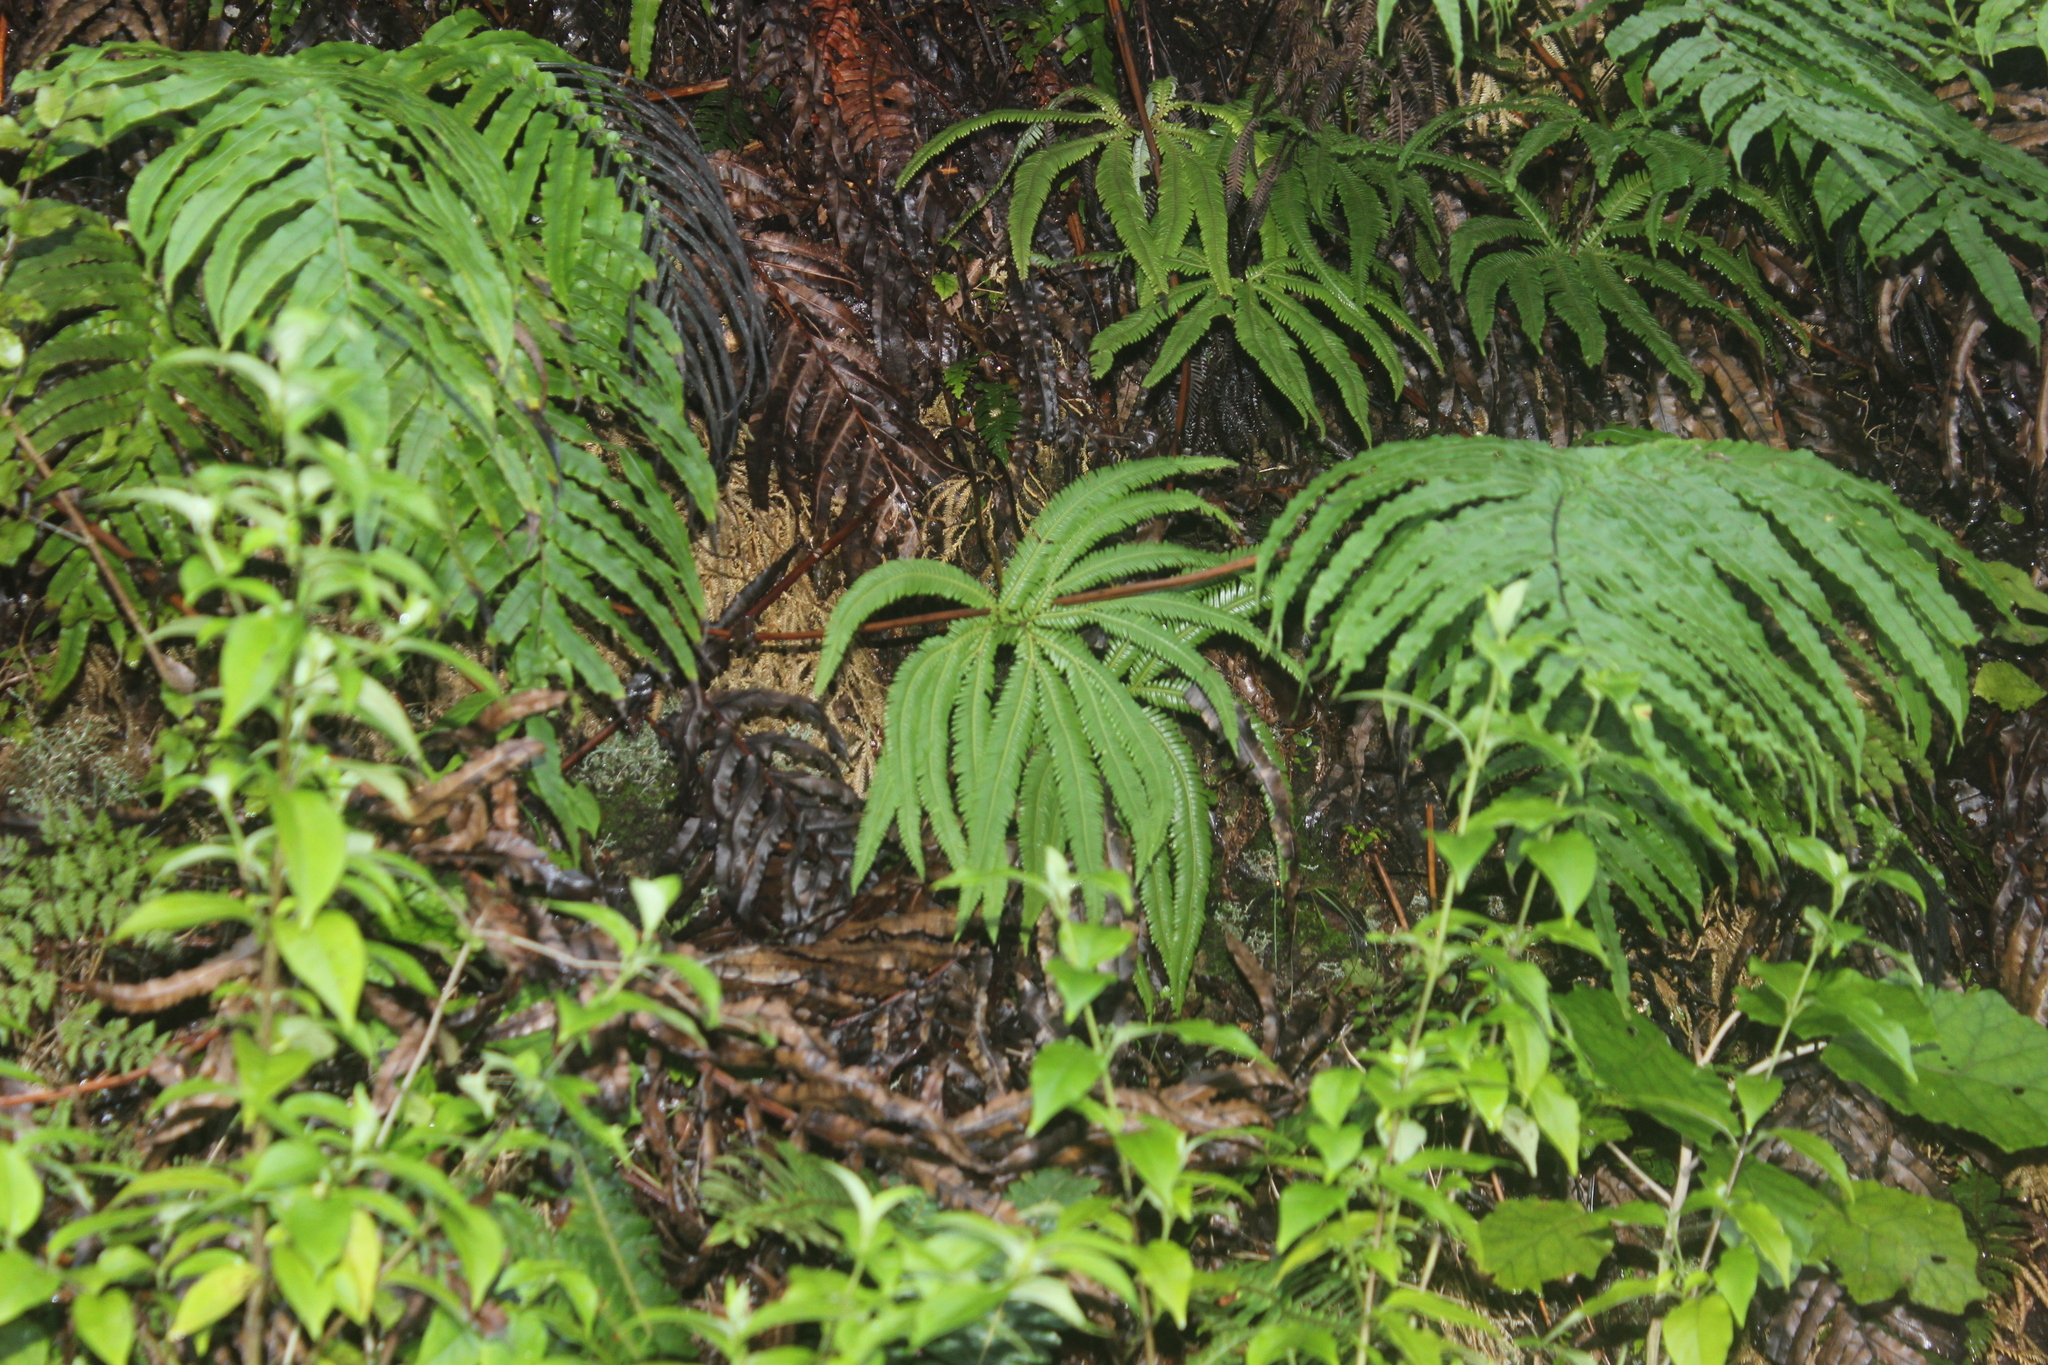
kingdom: Plantae
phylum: Tracheophyta
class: Polypodiopsida
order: Gleicheniales
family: Gleicheniaceae
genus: Sticherus
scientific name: Sticherus cunninghamii
